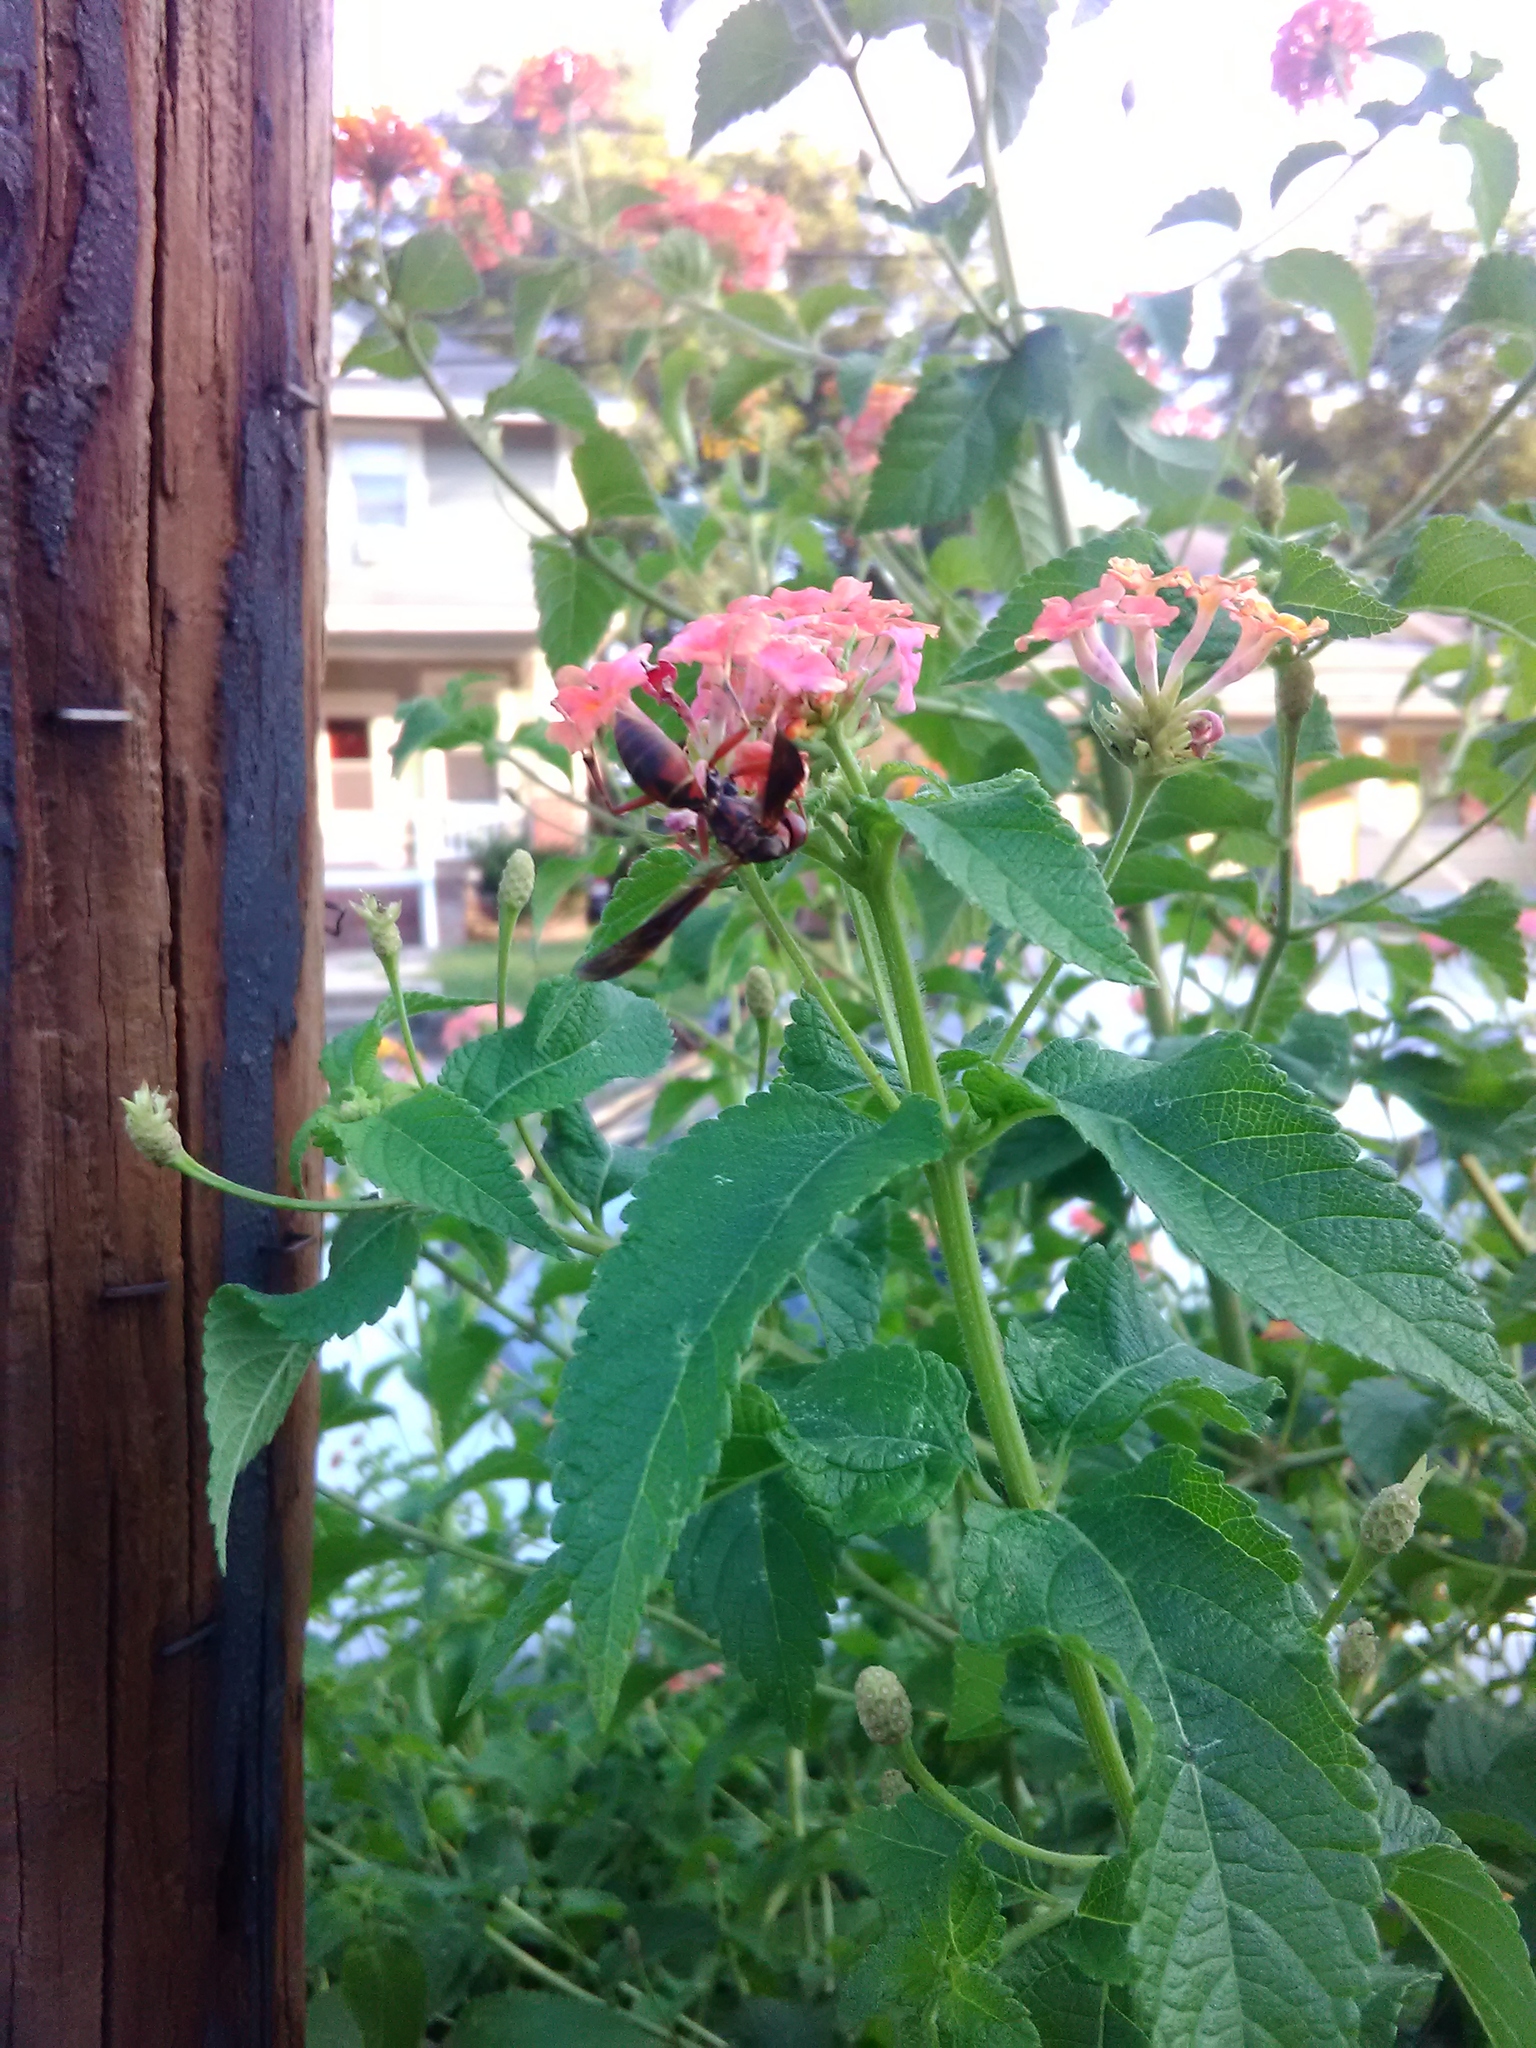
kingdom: Animalia
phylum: Arthropoda
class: Insecta
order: Hymenoptera
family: Eumenidae
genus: Polistes
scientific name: Polistes metricus
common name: Metric paper wasp
